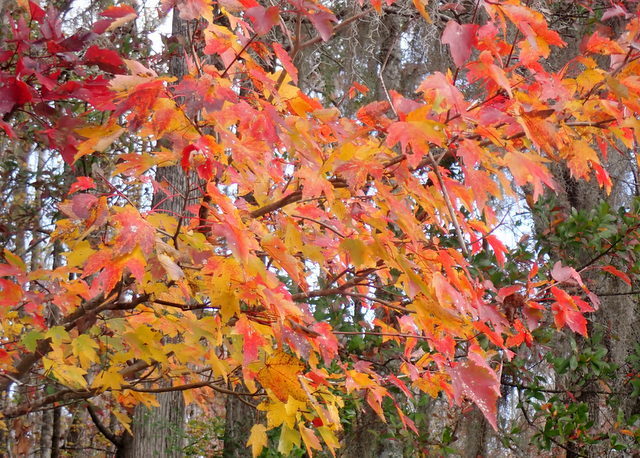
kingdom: Plantae
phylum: Tracheophyta
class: Magnoliopsida
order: Sapindales
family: Sapindaceae
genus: Acer
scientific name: Acer rubrum
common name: Red maple
